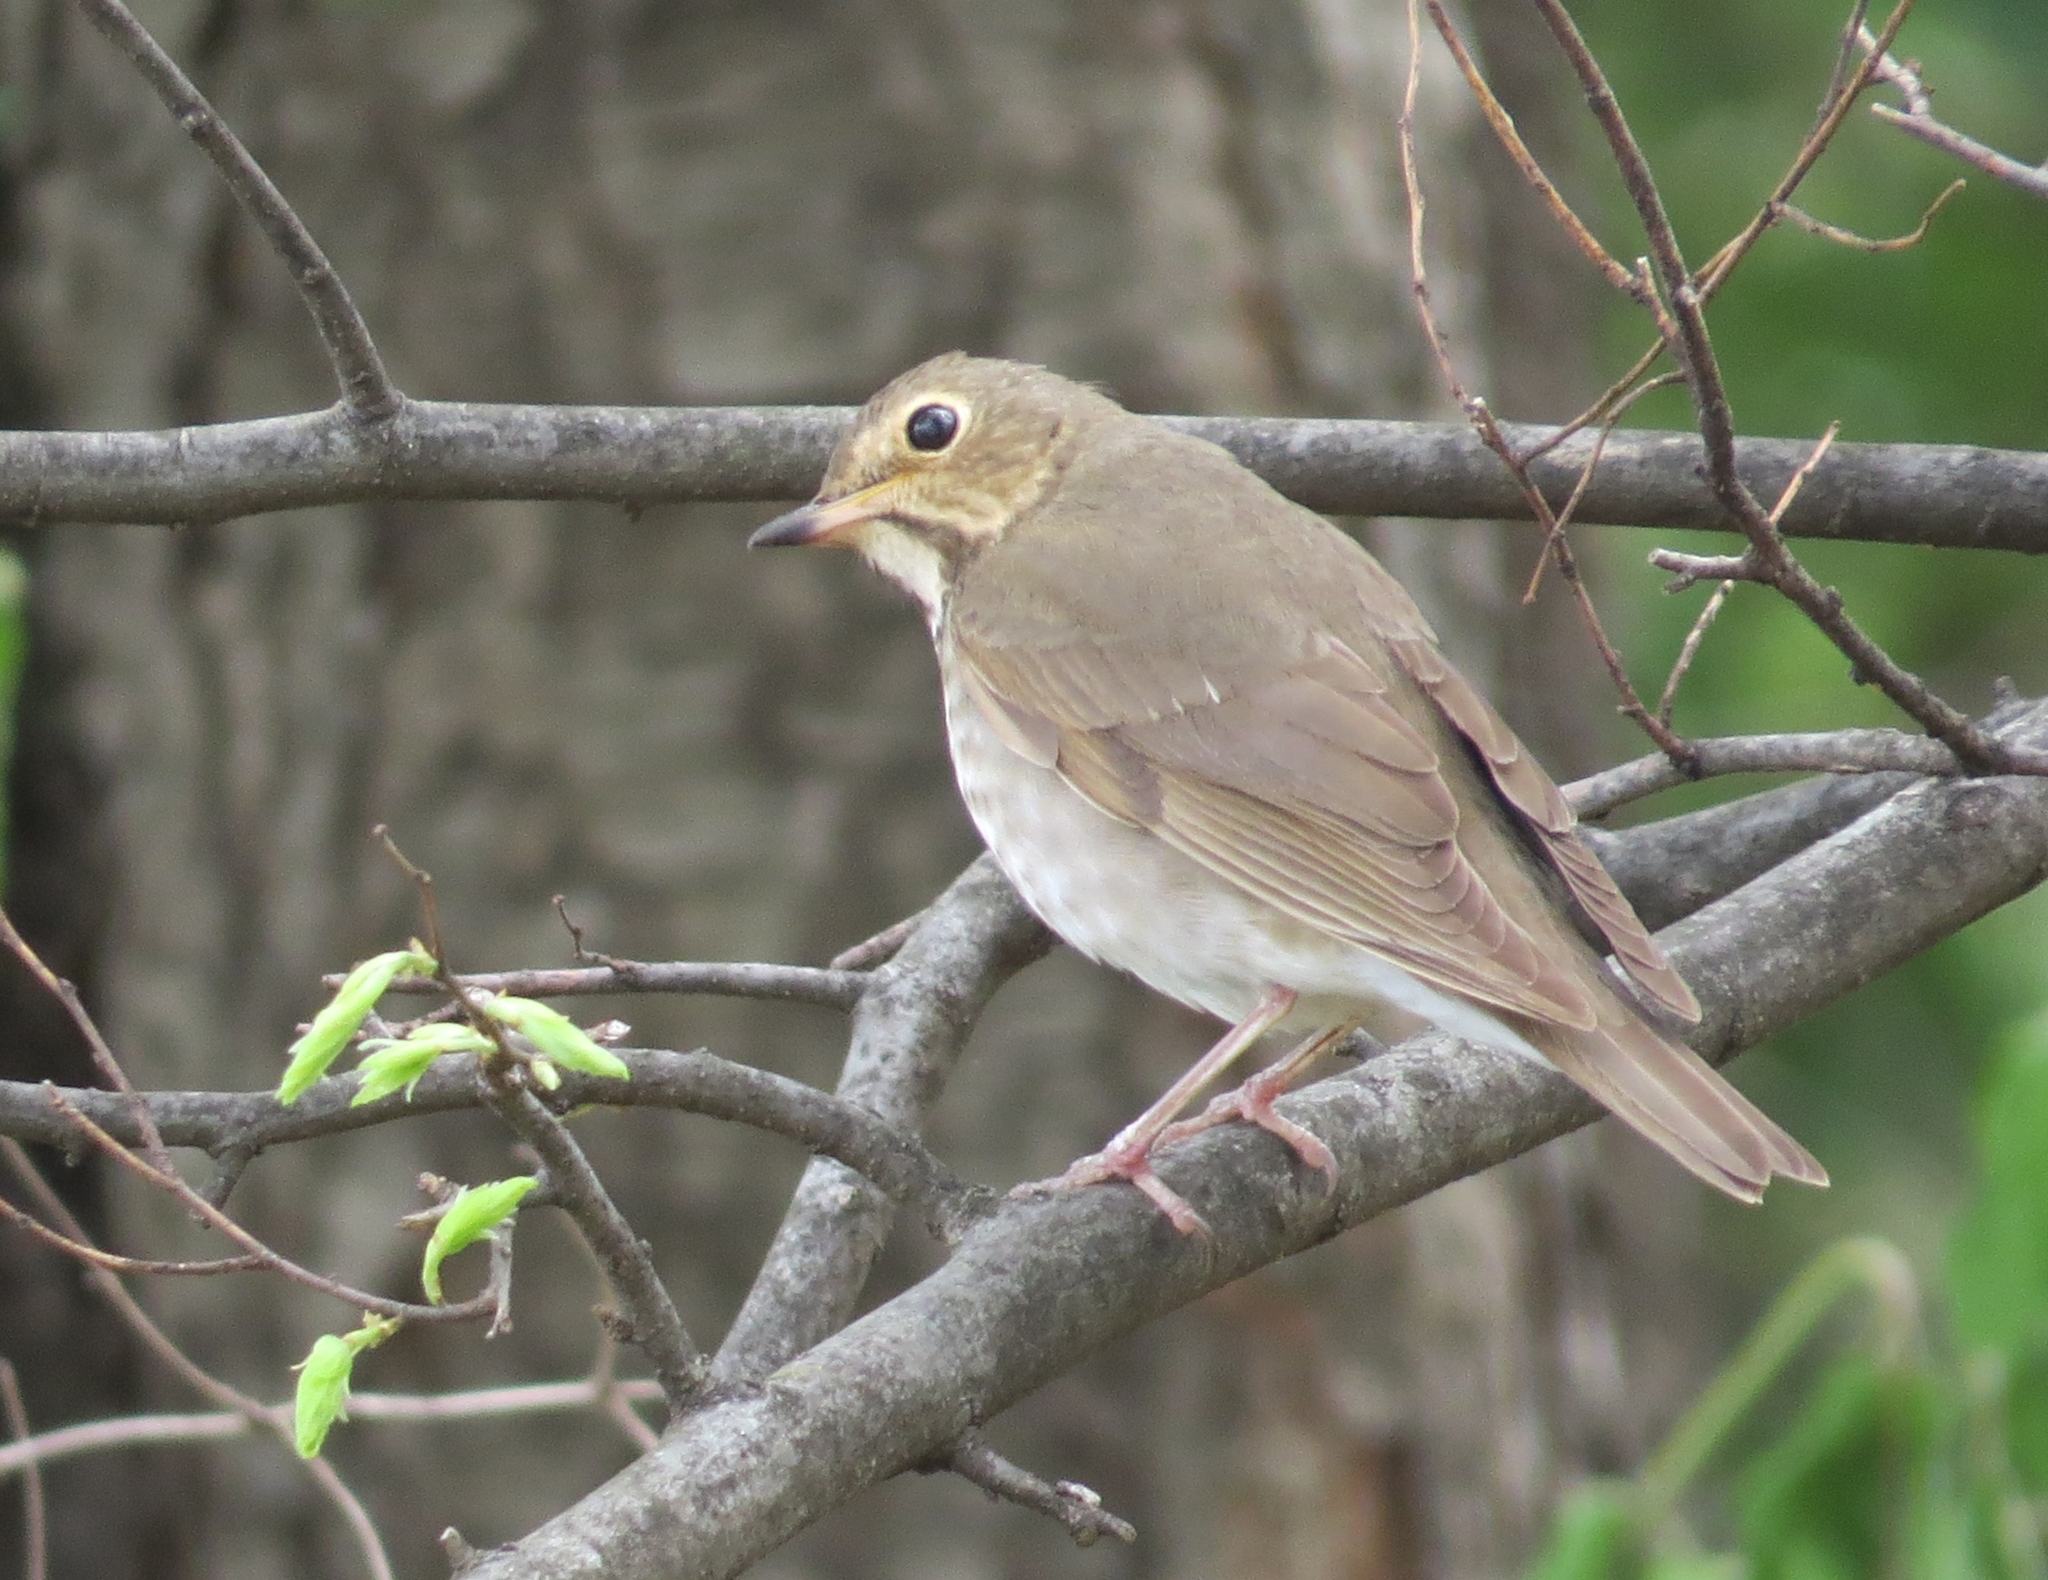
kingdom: Animalia
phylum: Chordata
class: Aves
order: Passeriformes
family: Turdidae
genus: Catharus
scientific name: Catharus ustulatus
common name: Swainson's thrush
